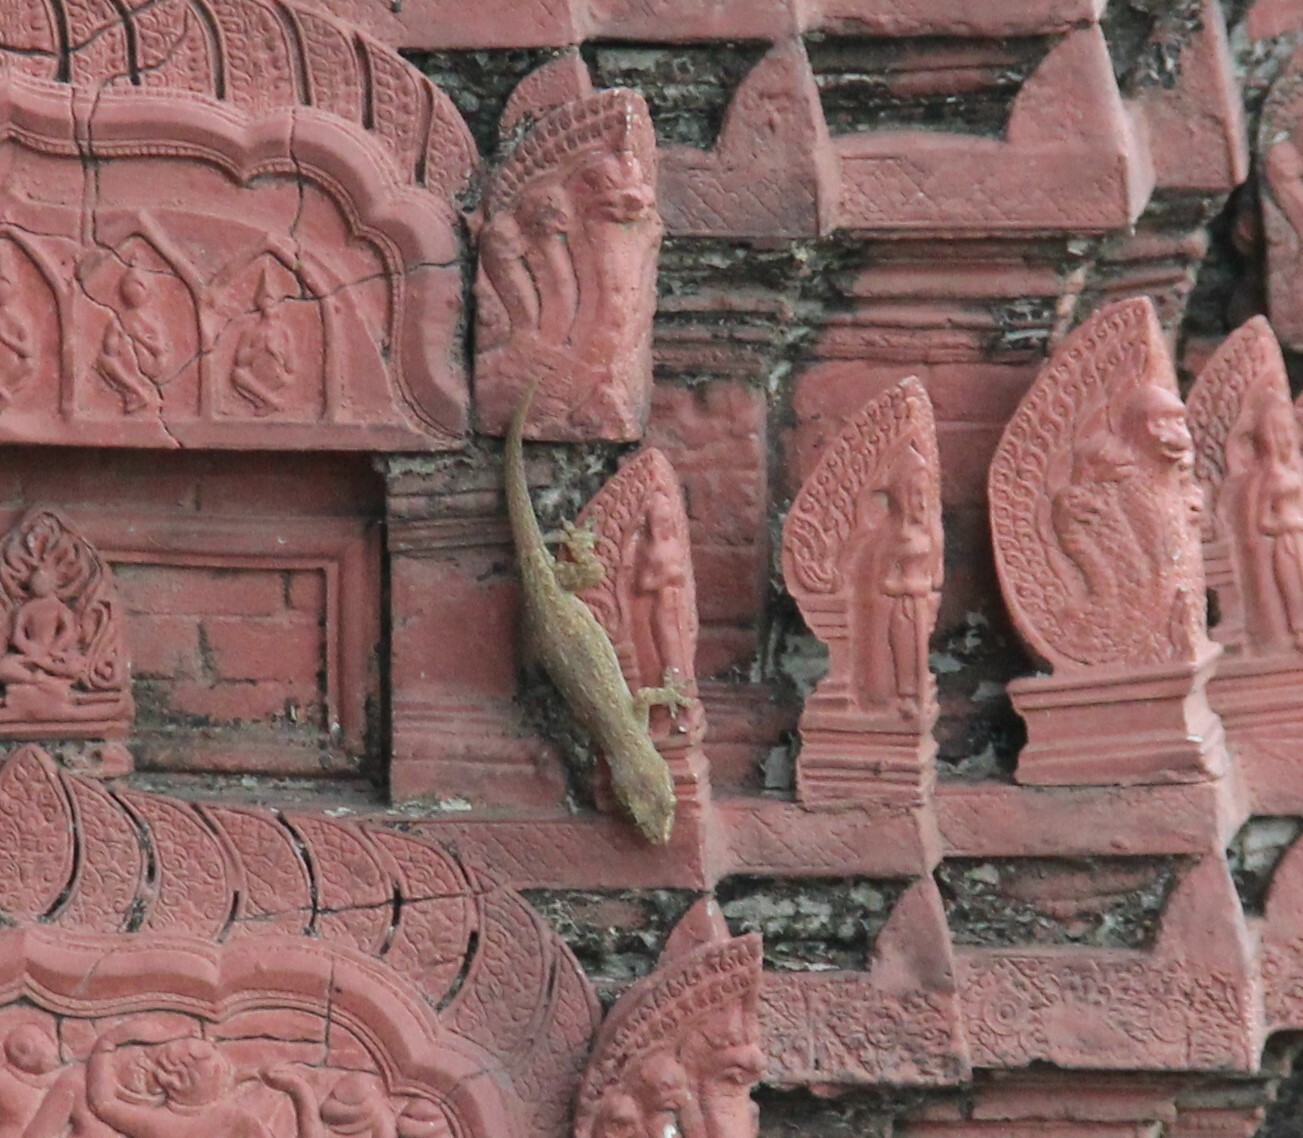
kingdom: Animalia
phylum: Chordata
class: Squamata
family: Gekkonidae
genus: Hemidactylus
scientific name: Hemidactylus frenatus
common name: Common house gecko
